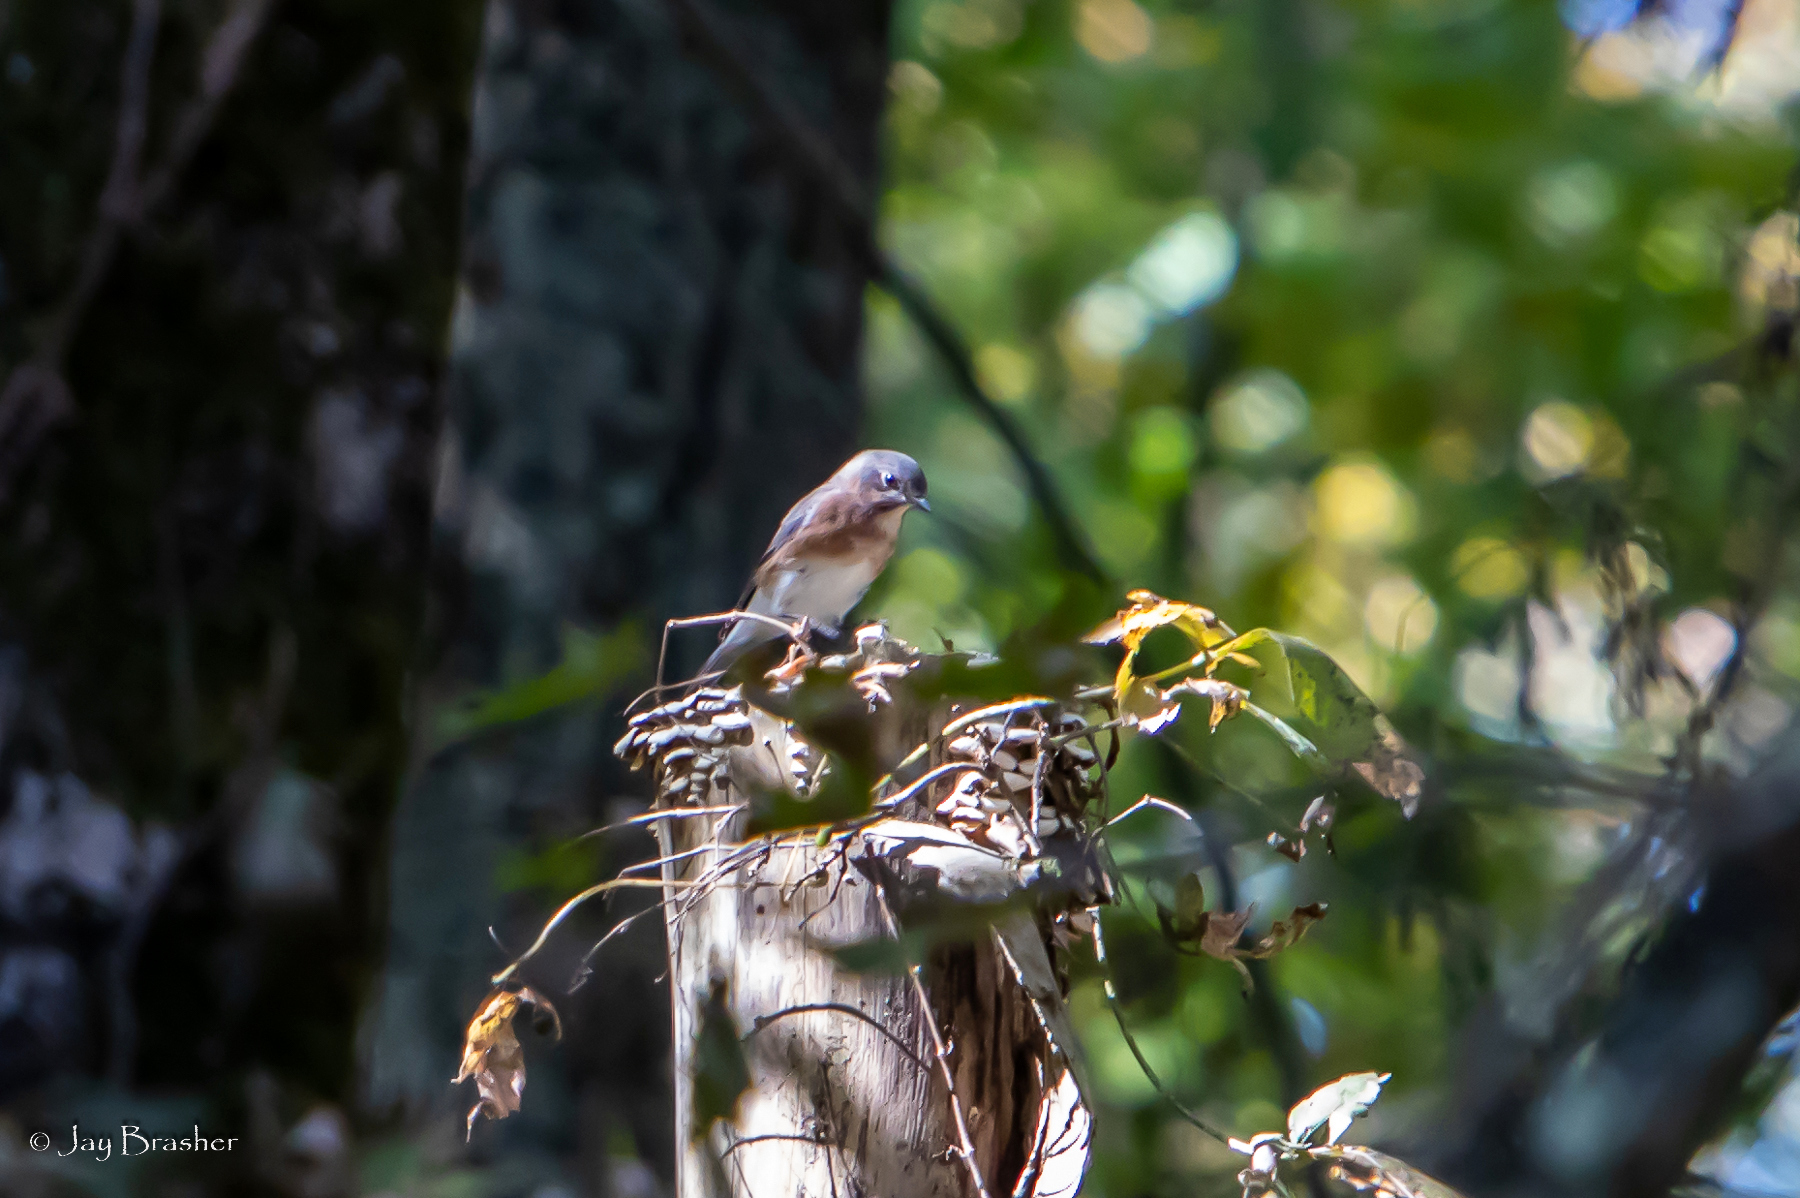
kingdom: Animalia
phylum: Chordata
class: Aves
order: Passeriformes
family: Turdidae
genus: Sialia
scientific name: Sialia sialis
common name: Eastern bluebird
